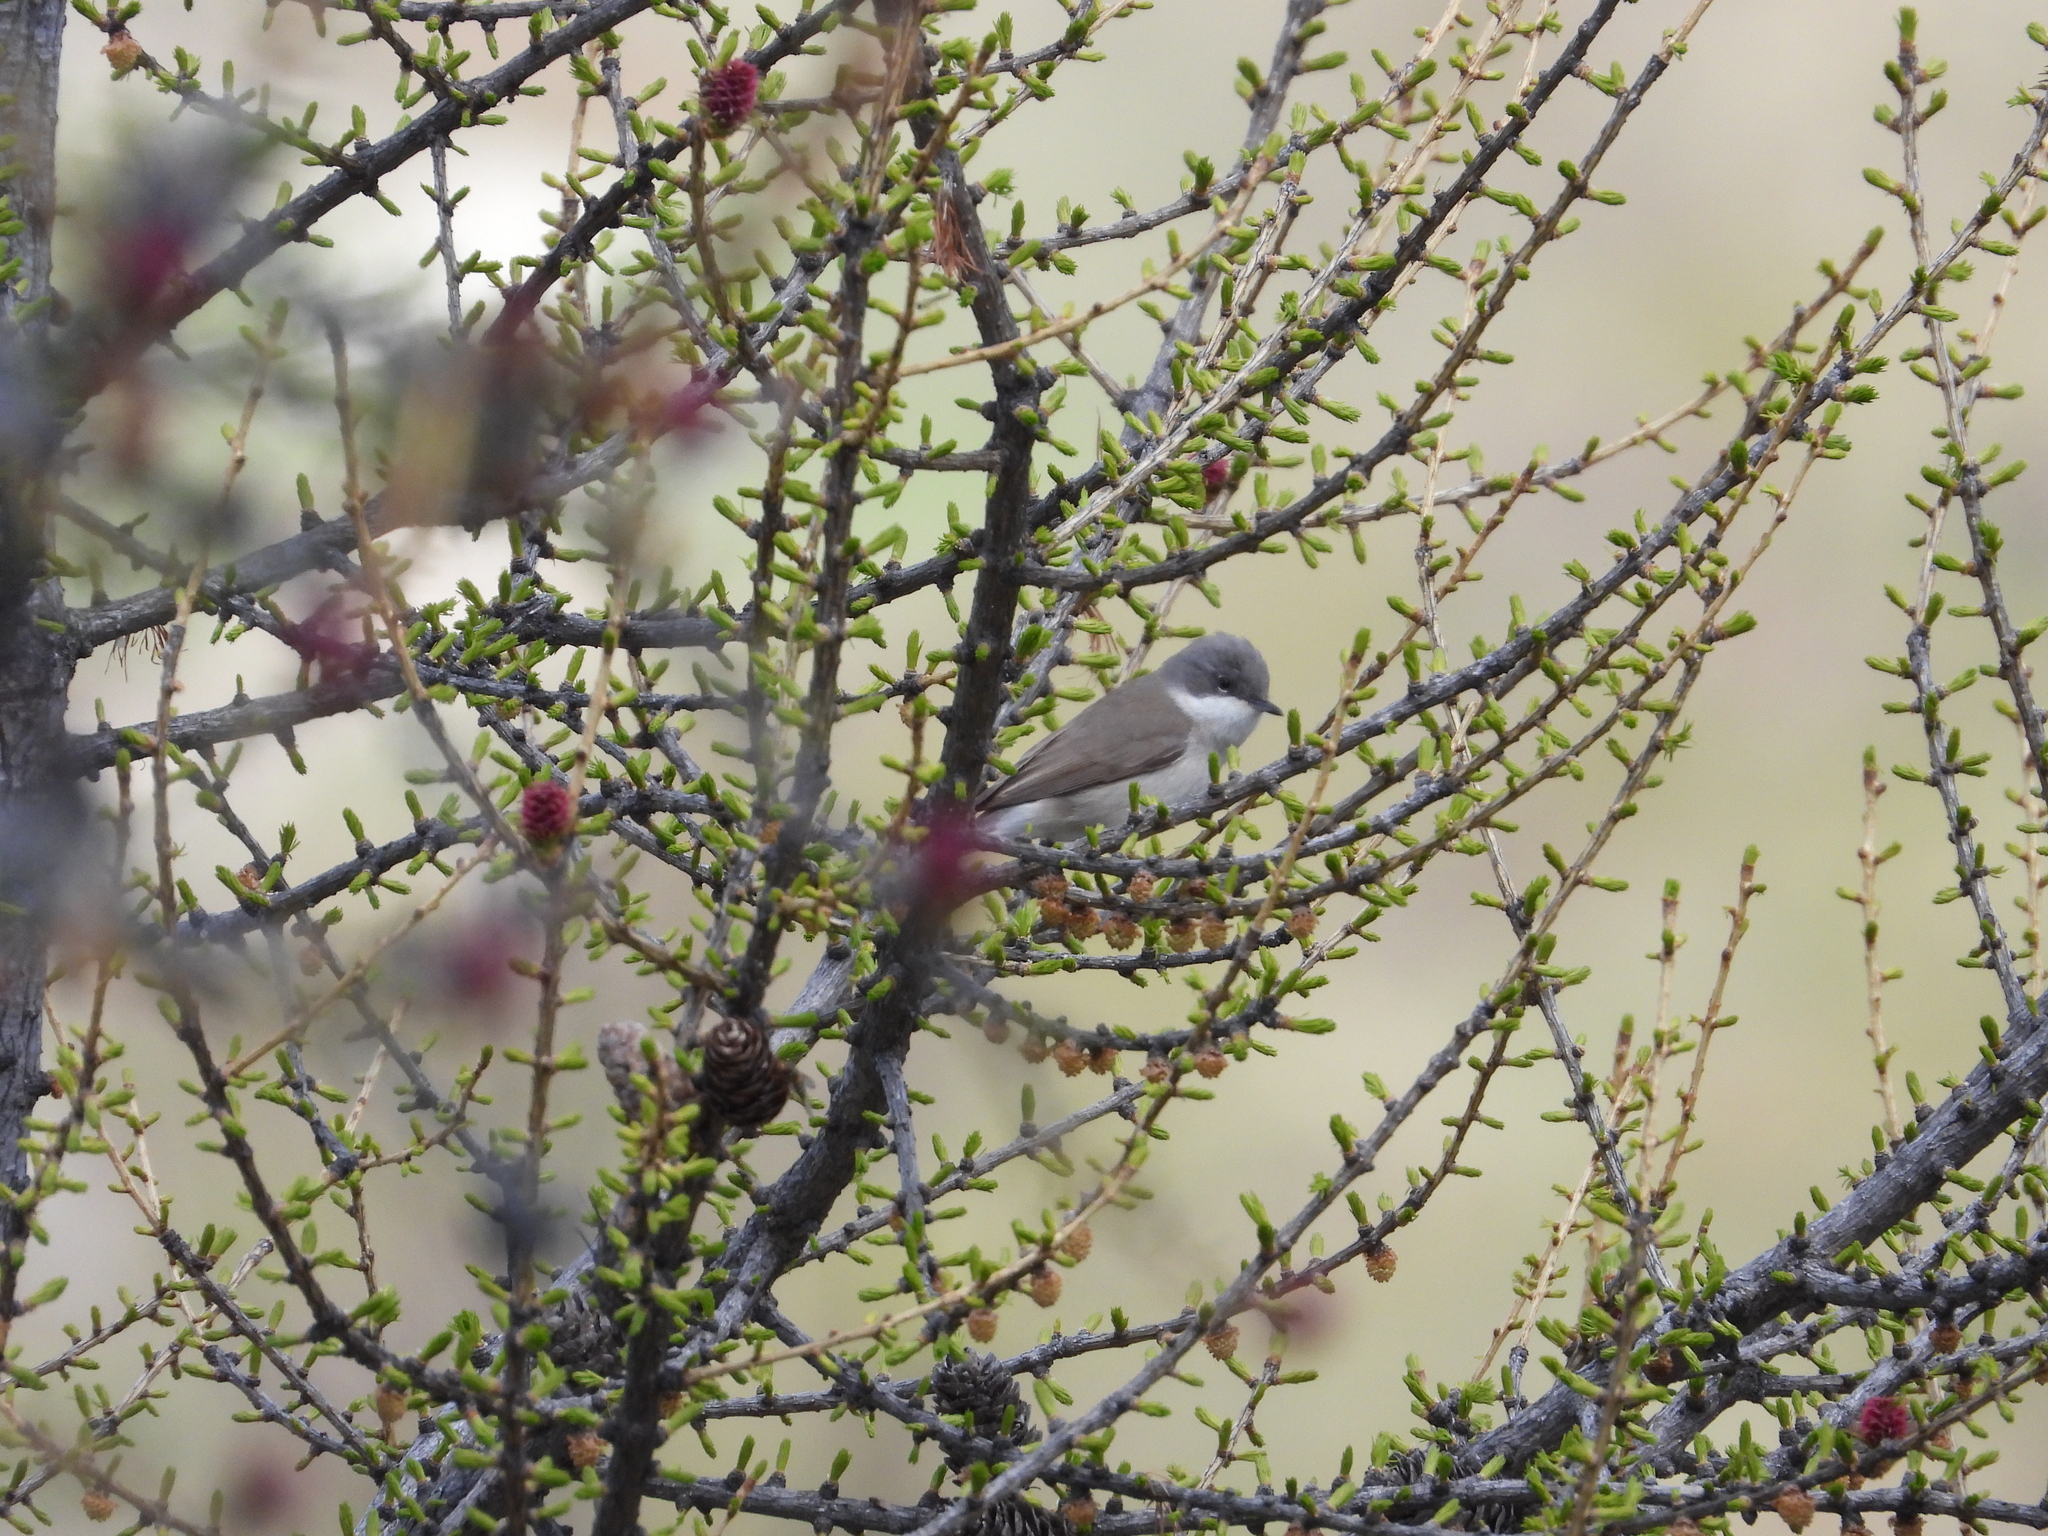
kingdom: Animalia
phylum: Chordata
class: Aves
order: Passeriformes
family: Sylviidae
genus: Sylvia
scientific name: Sylvia curruca
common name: Lesser whitethroat
